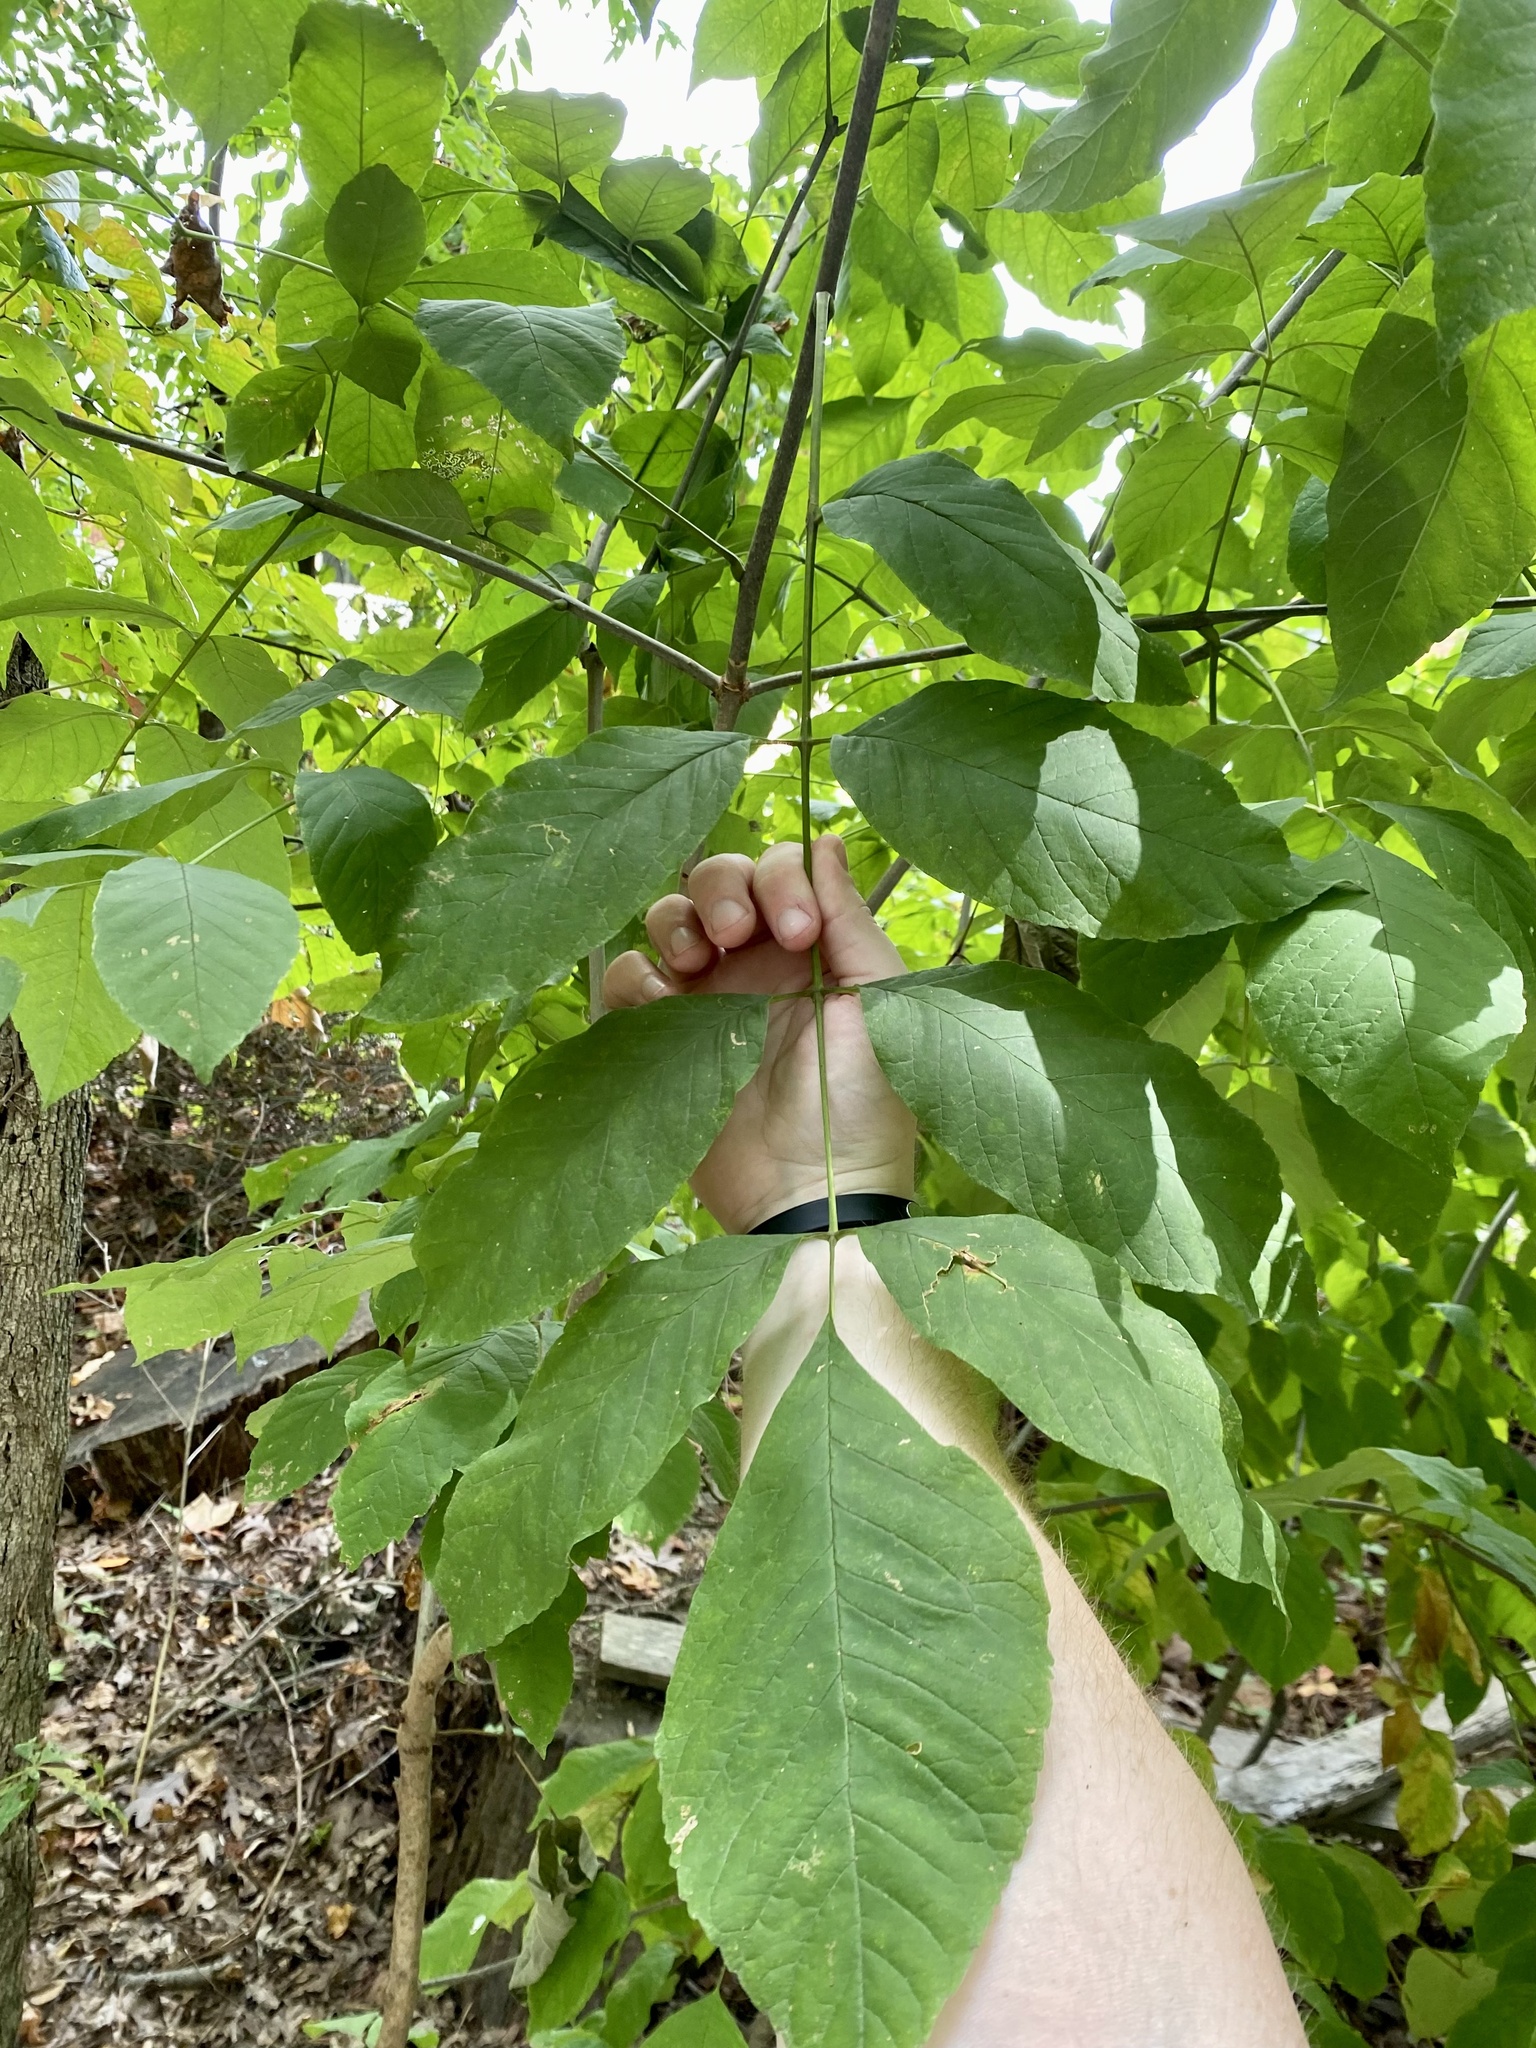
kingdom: Plantae
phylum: Tracheophyta
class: Magnoliopsida
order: Lamiales
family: Oleaceae
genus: Fraxinus
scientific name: Fraxinus americana
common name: White ash
